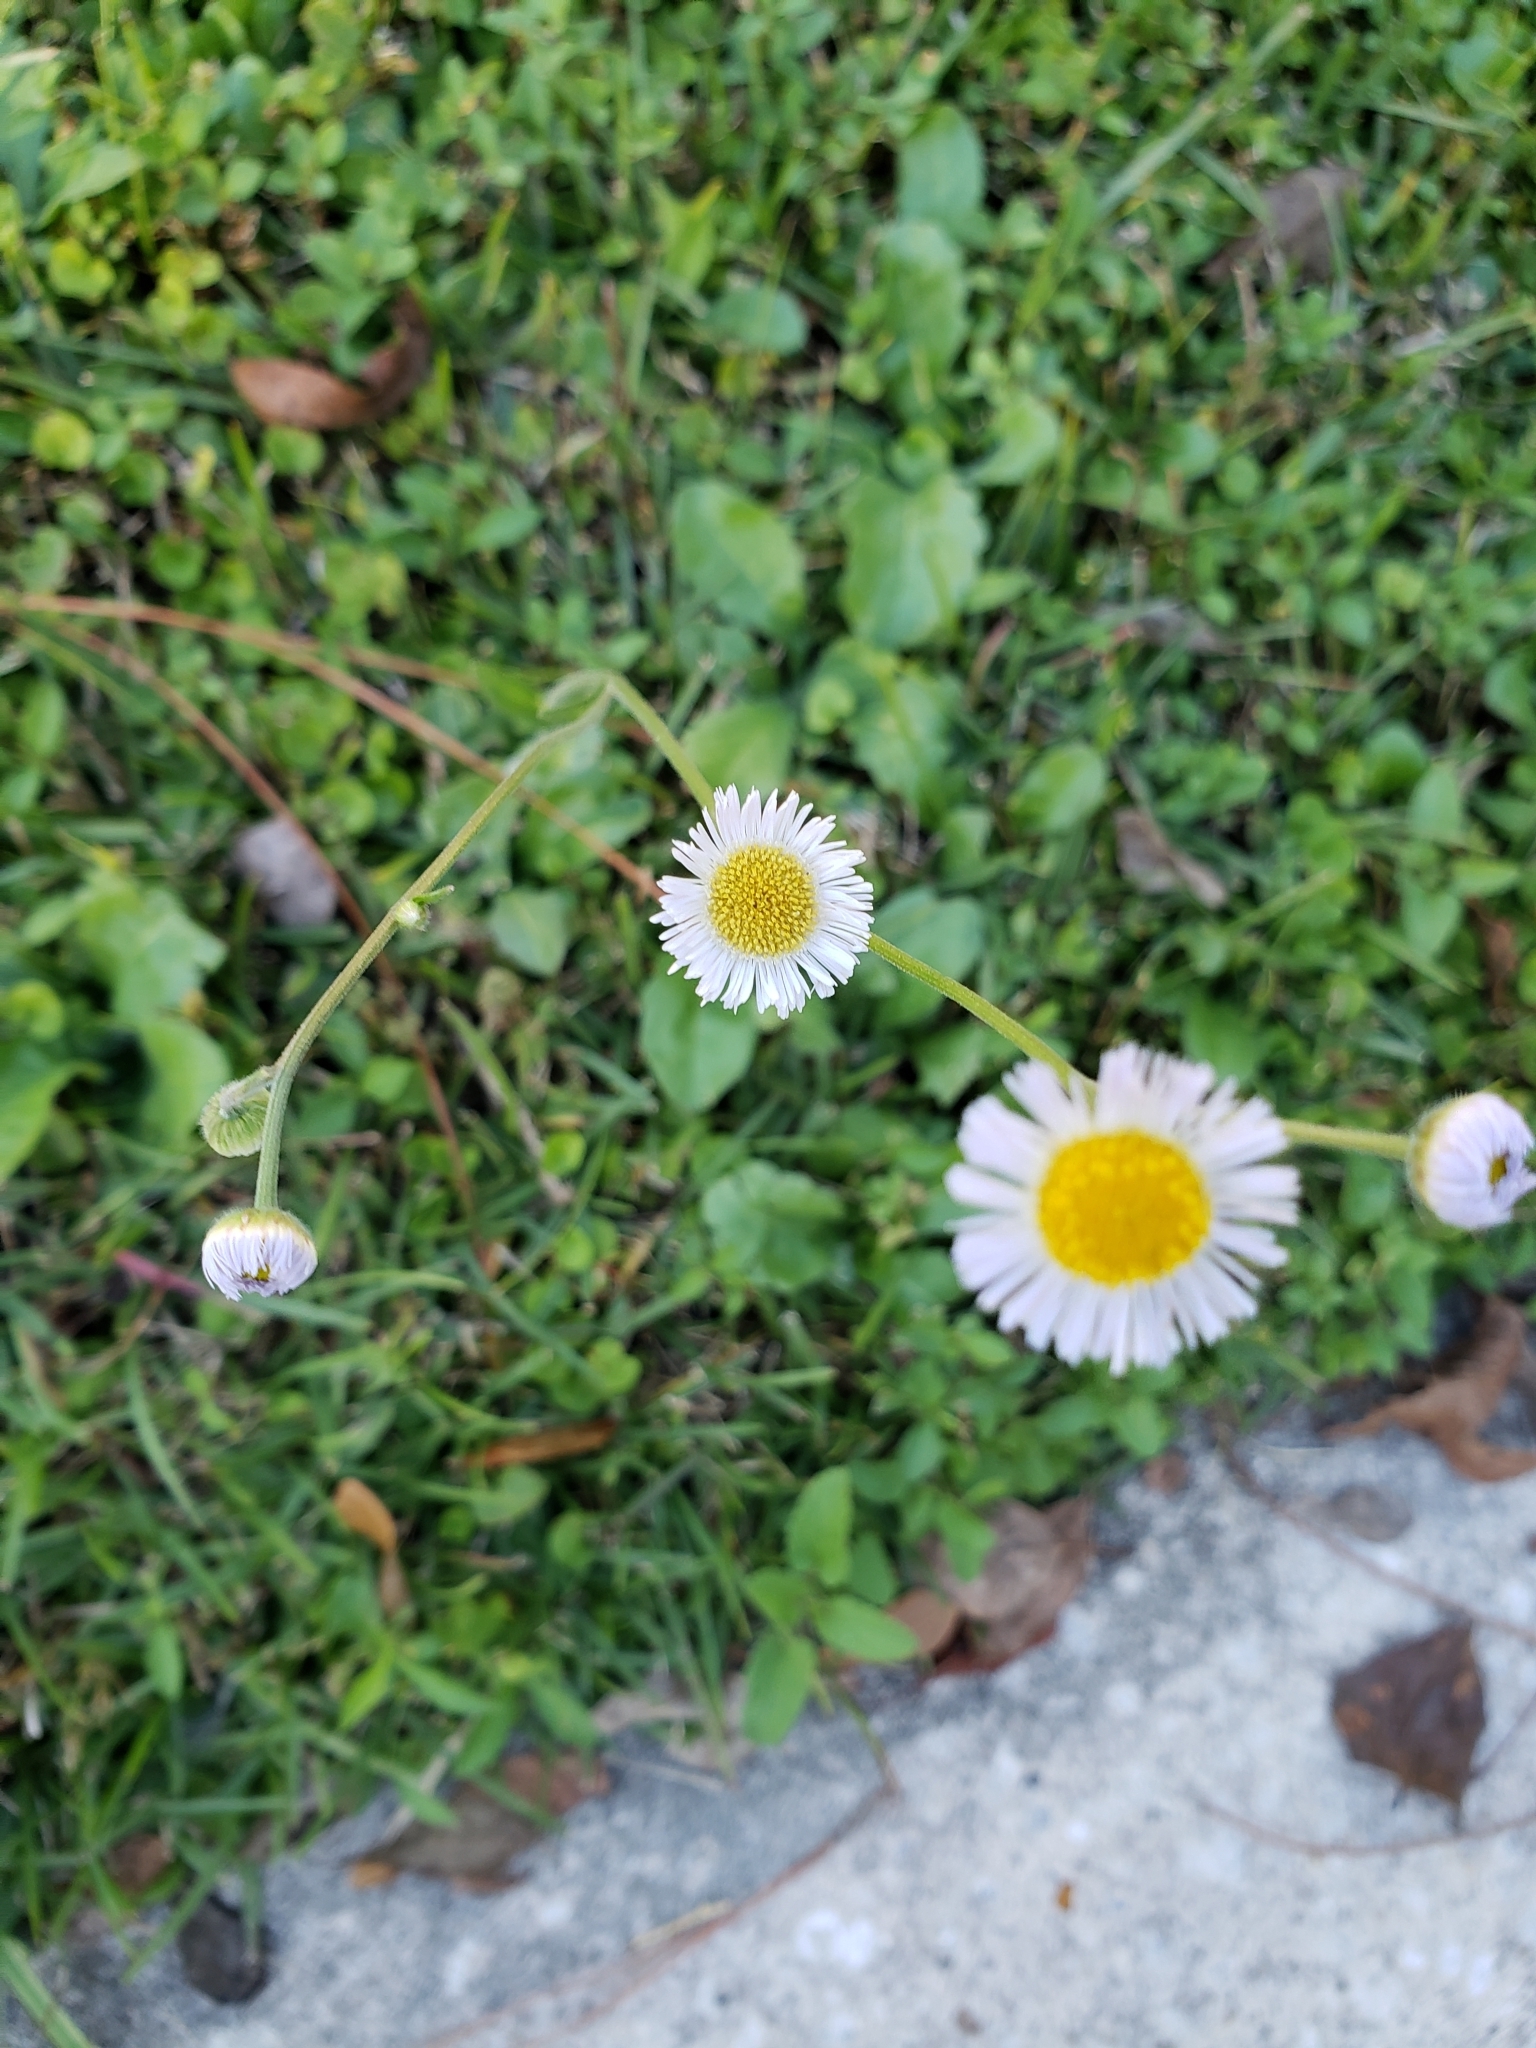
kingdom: Plantae
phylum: Tracheophyta
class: Magnoliopsida
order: Asterales
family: Asteraceae
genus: Erigeron
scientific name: Erigeron quercifolius
